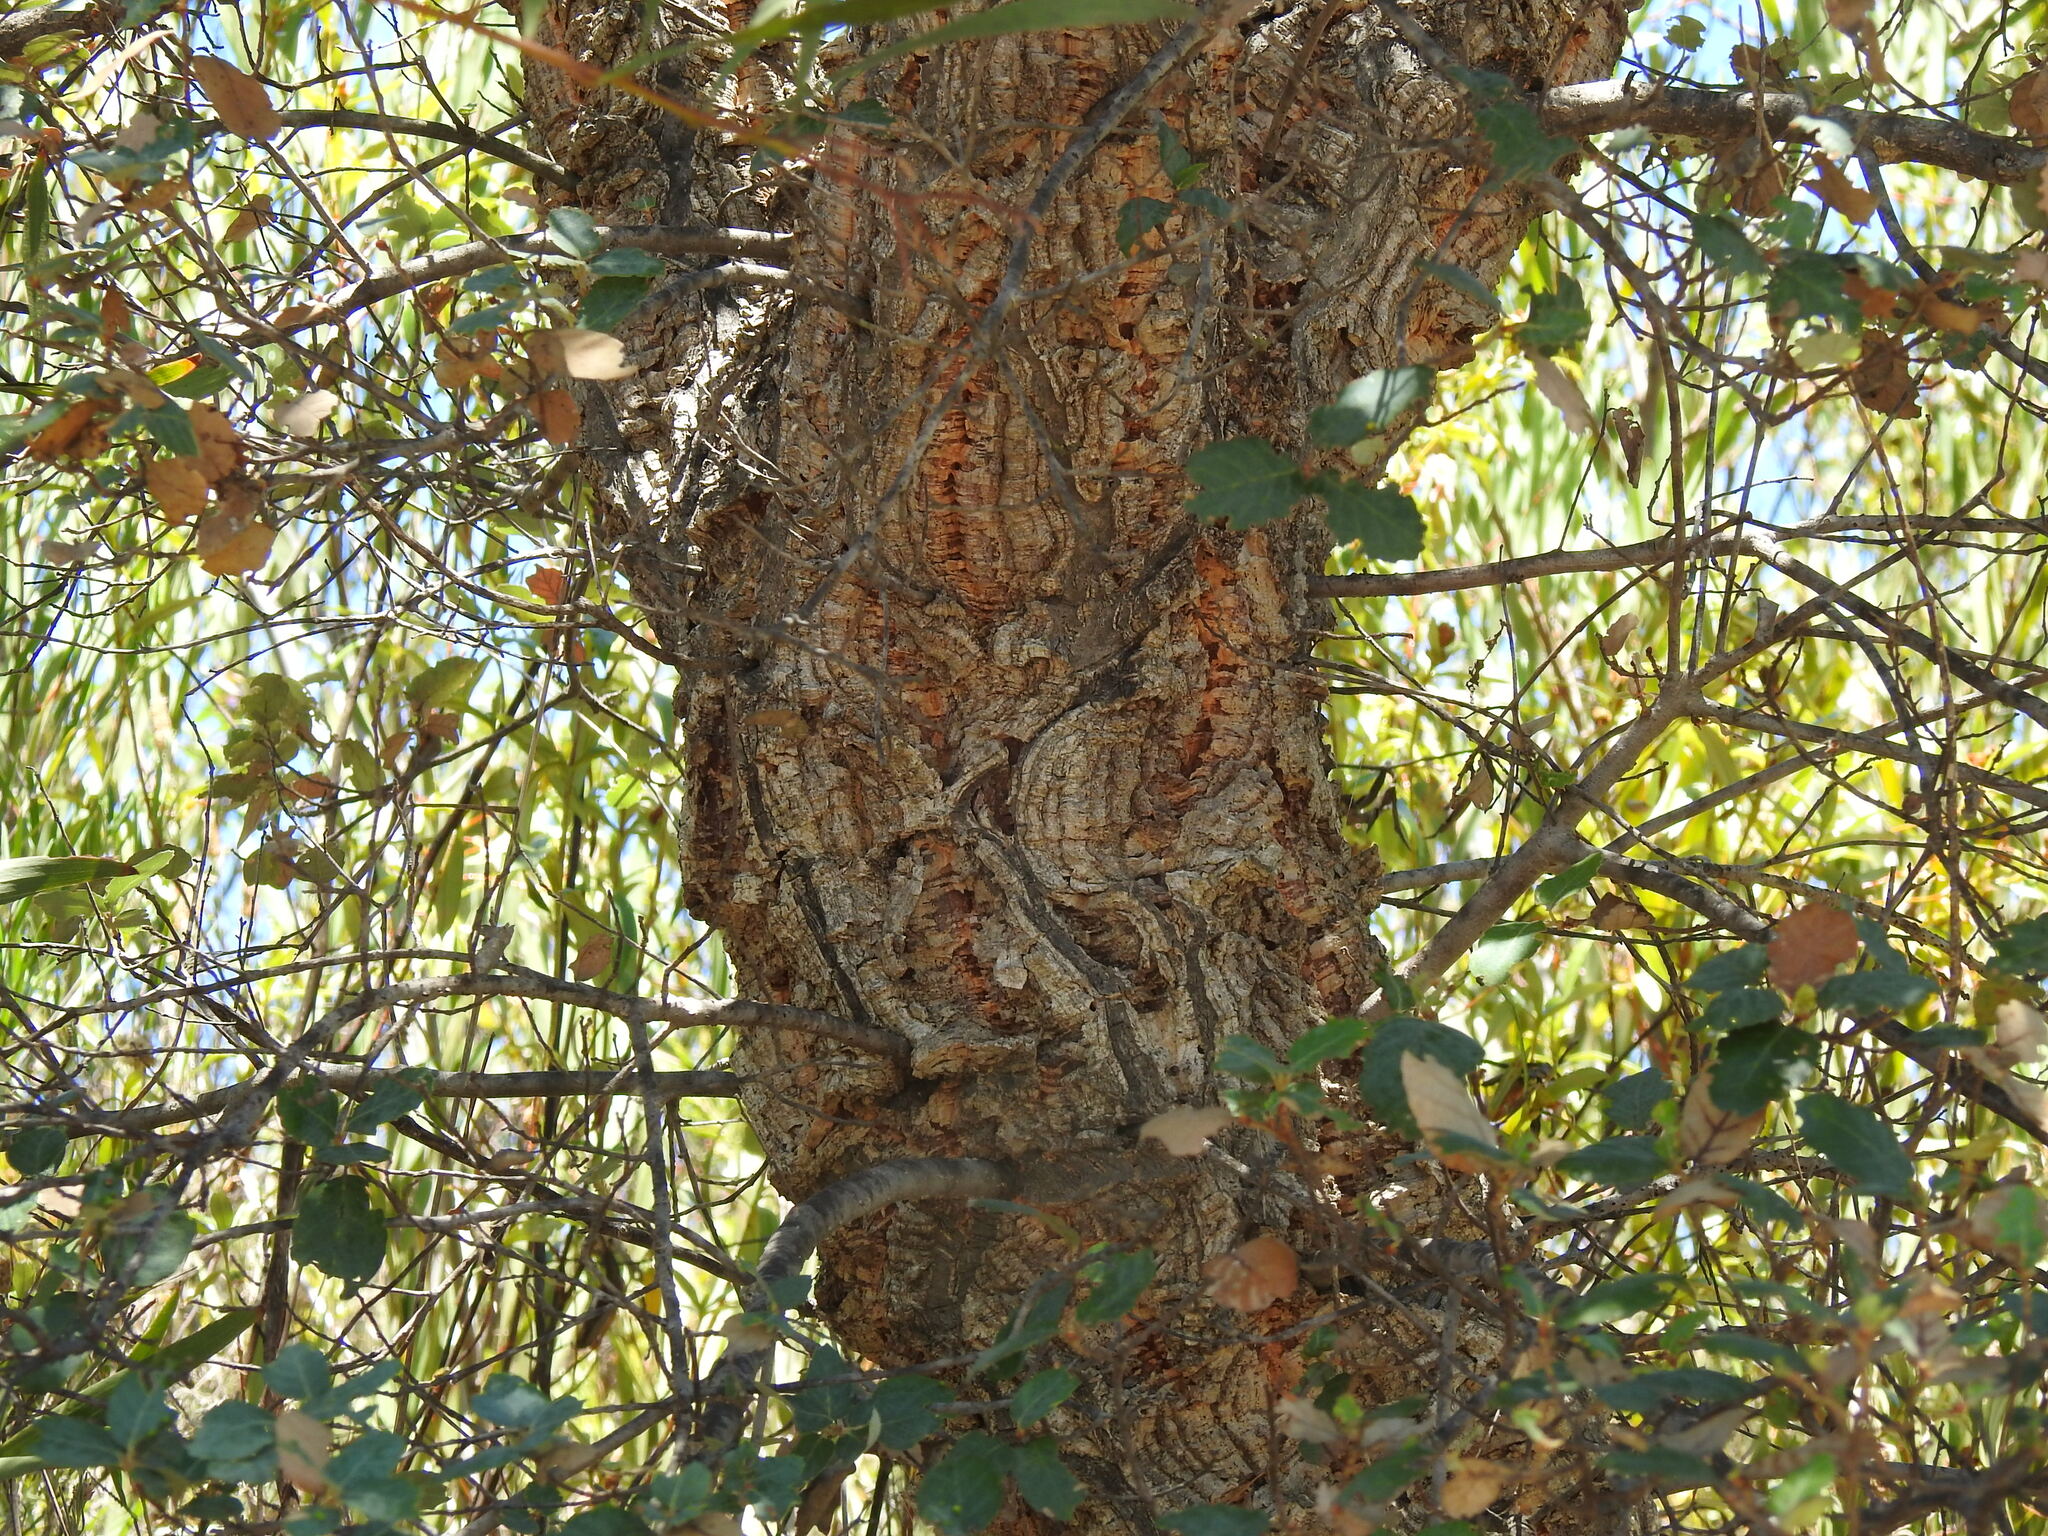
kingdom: Plantae
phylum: Tracheophyta
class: Magnoliopsida
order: Fagales
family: Fagaceae
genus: Quercus
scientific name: Quercus suber
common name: Cork oak
